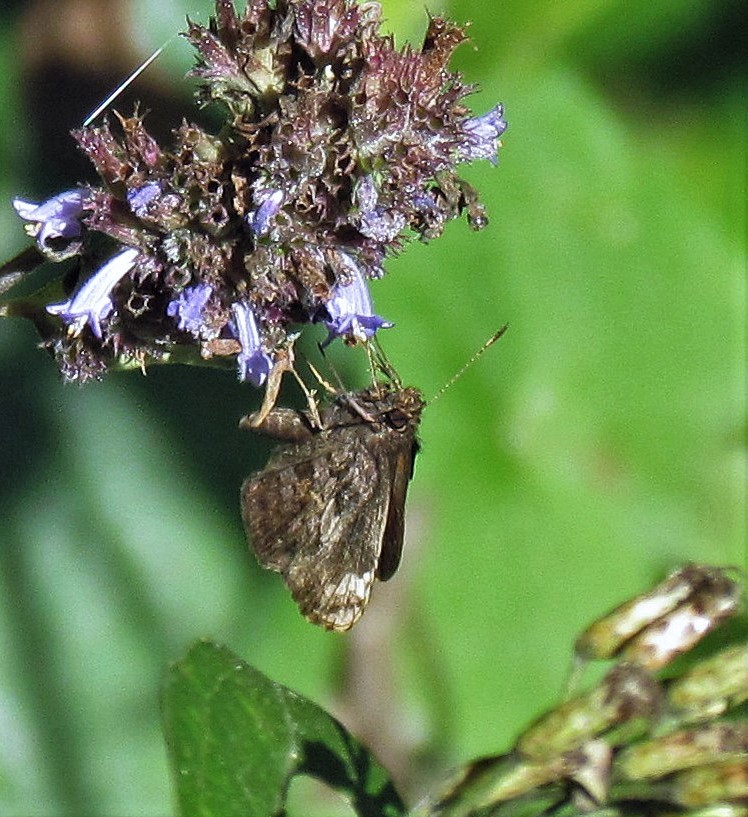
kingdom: Animalia
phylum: Arthropoda
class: Insecta
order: Lepidoptera
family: Hesperiidae
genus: Lucida
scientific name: Lucida lucia
